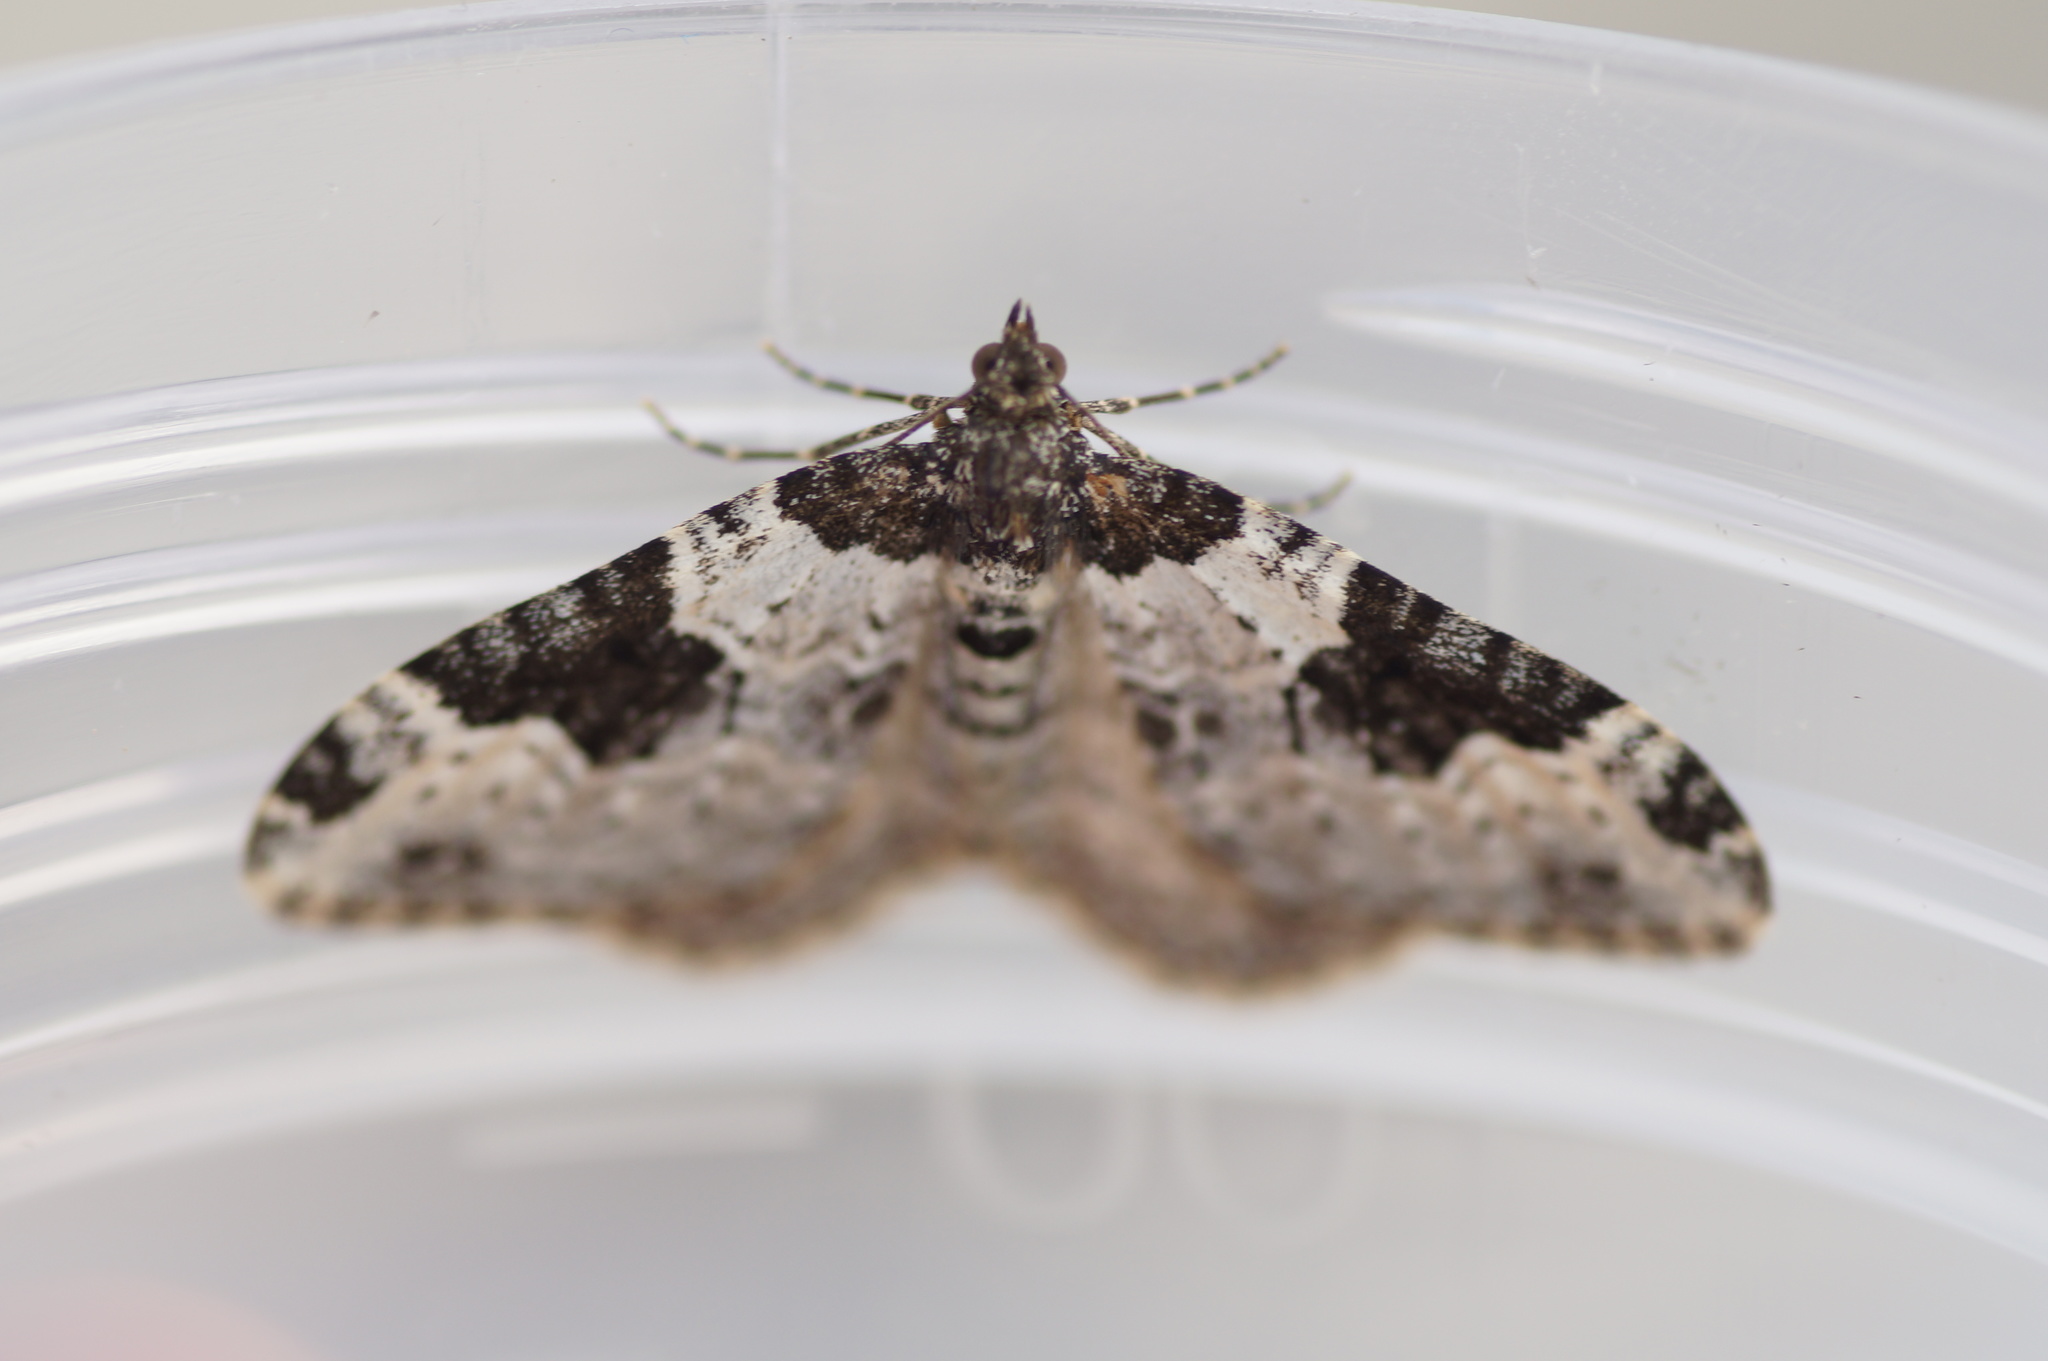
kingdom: Animalia
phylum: Arthropoda
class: Insecta
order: Lepidoptera
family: Geometridae
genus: Xanthorhoe
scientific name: Xanthorhoe fluctuata
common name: Garden carpet
